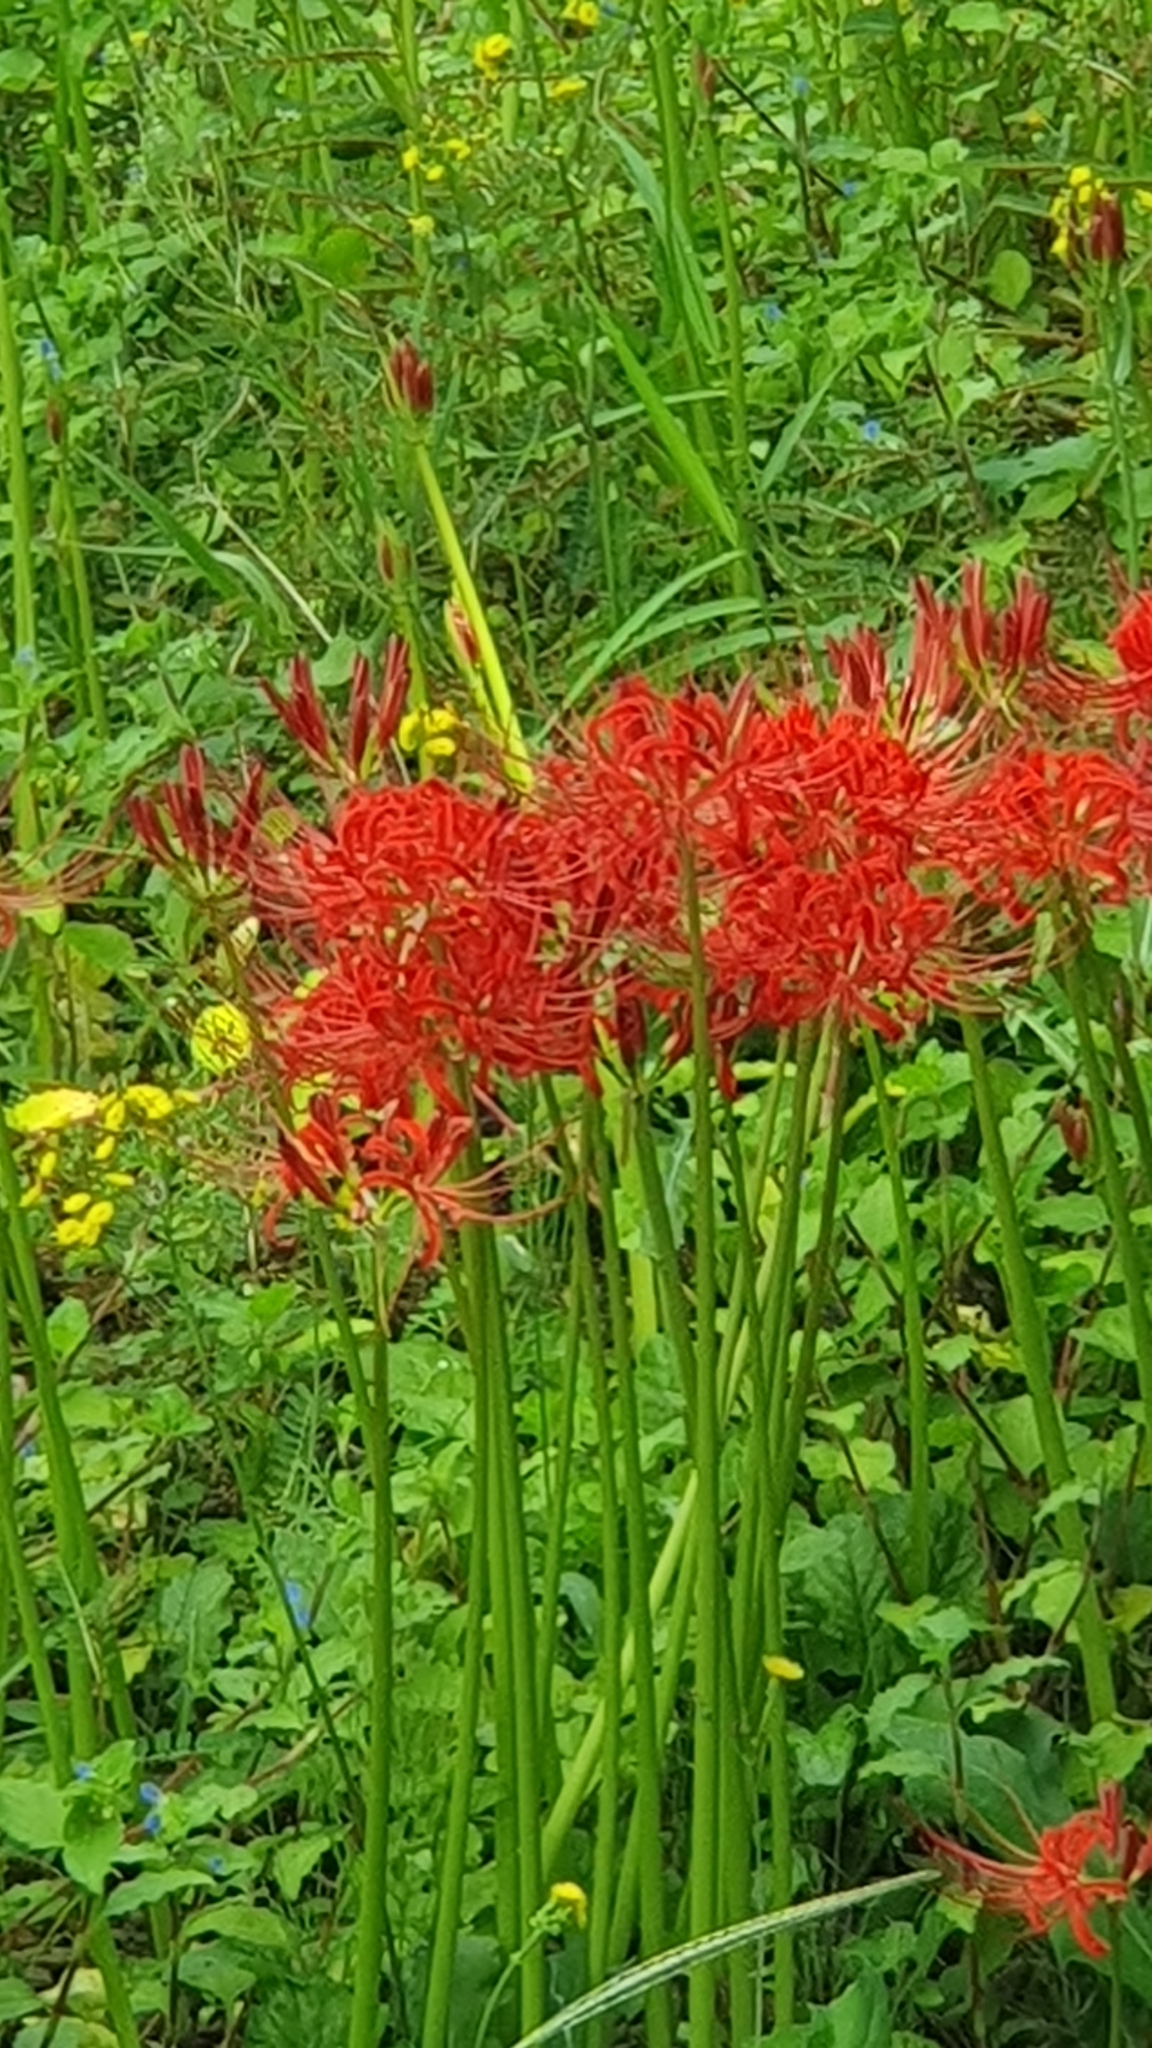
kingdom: Plantae
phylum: Tracheophyta
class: Liliopsida
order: Asparagales
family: Amaryllidaceae
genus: Lycoris
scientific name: Lycoris radiata
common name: Red spider lily
